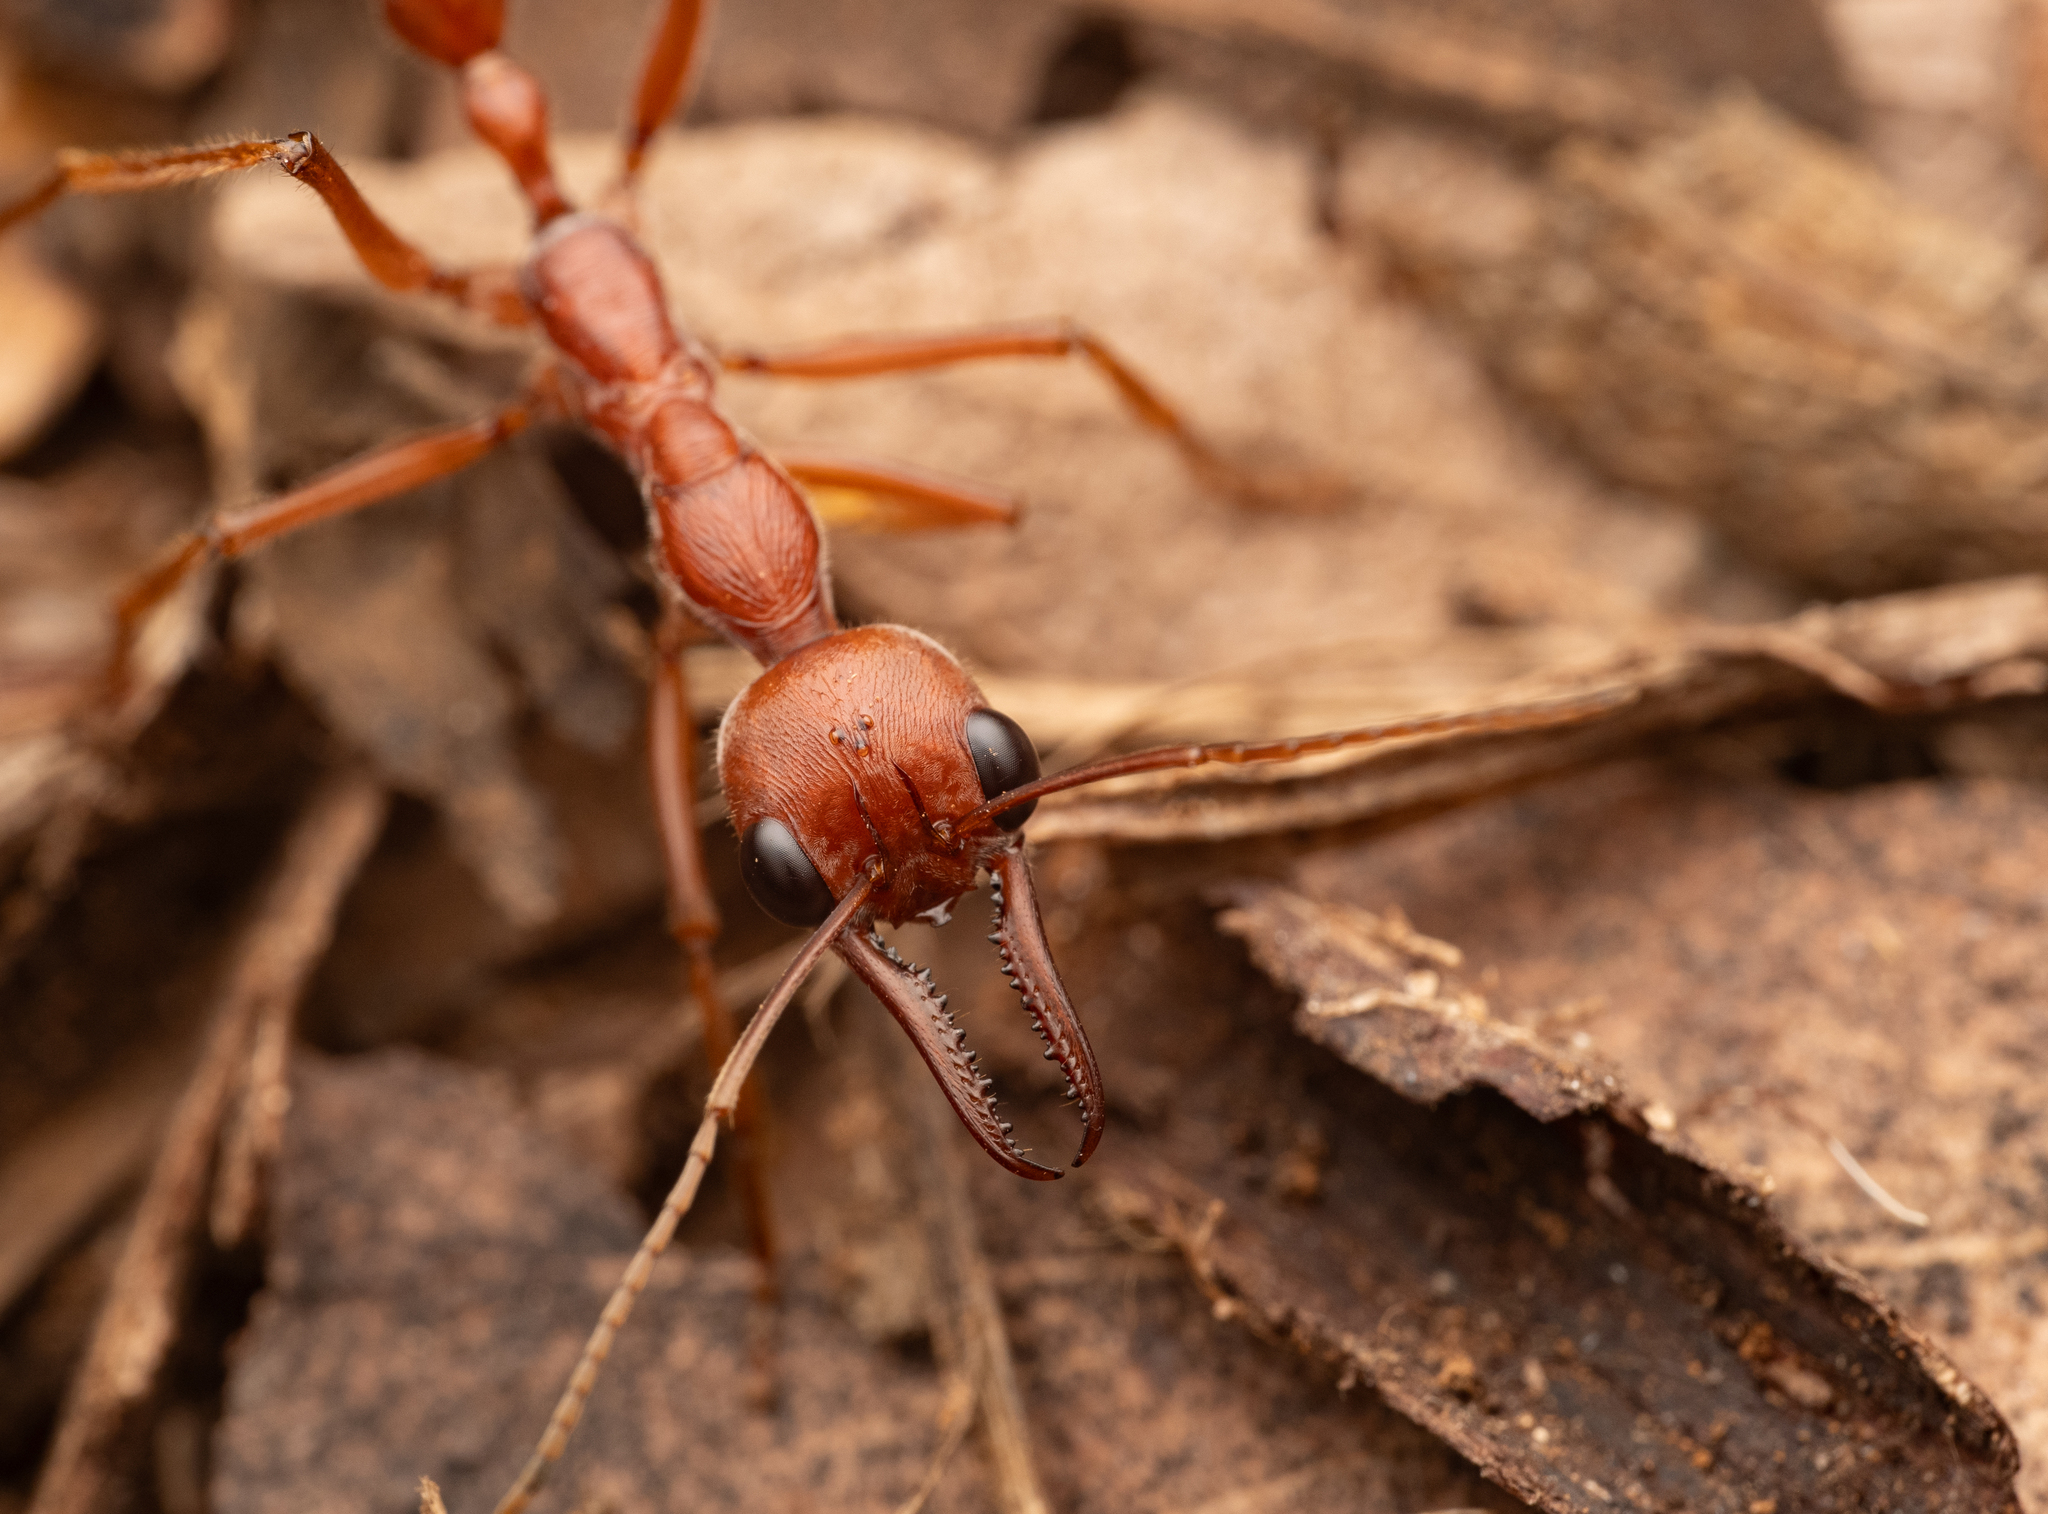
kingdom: Animalia
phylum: Arthropoda
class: Insecta
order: Hymenoptera
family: Formicidae
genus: Myrmecia
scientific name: Myrmecia brevinoda
